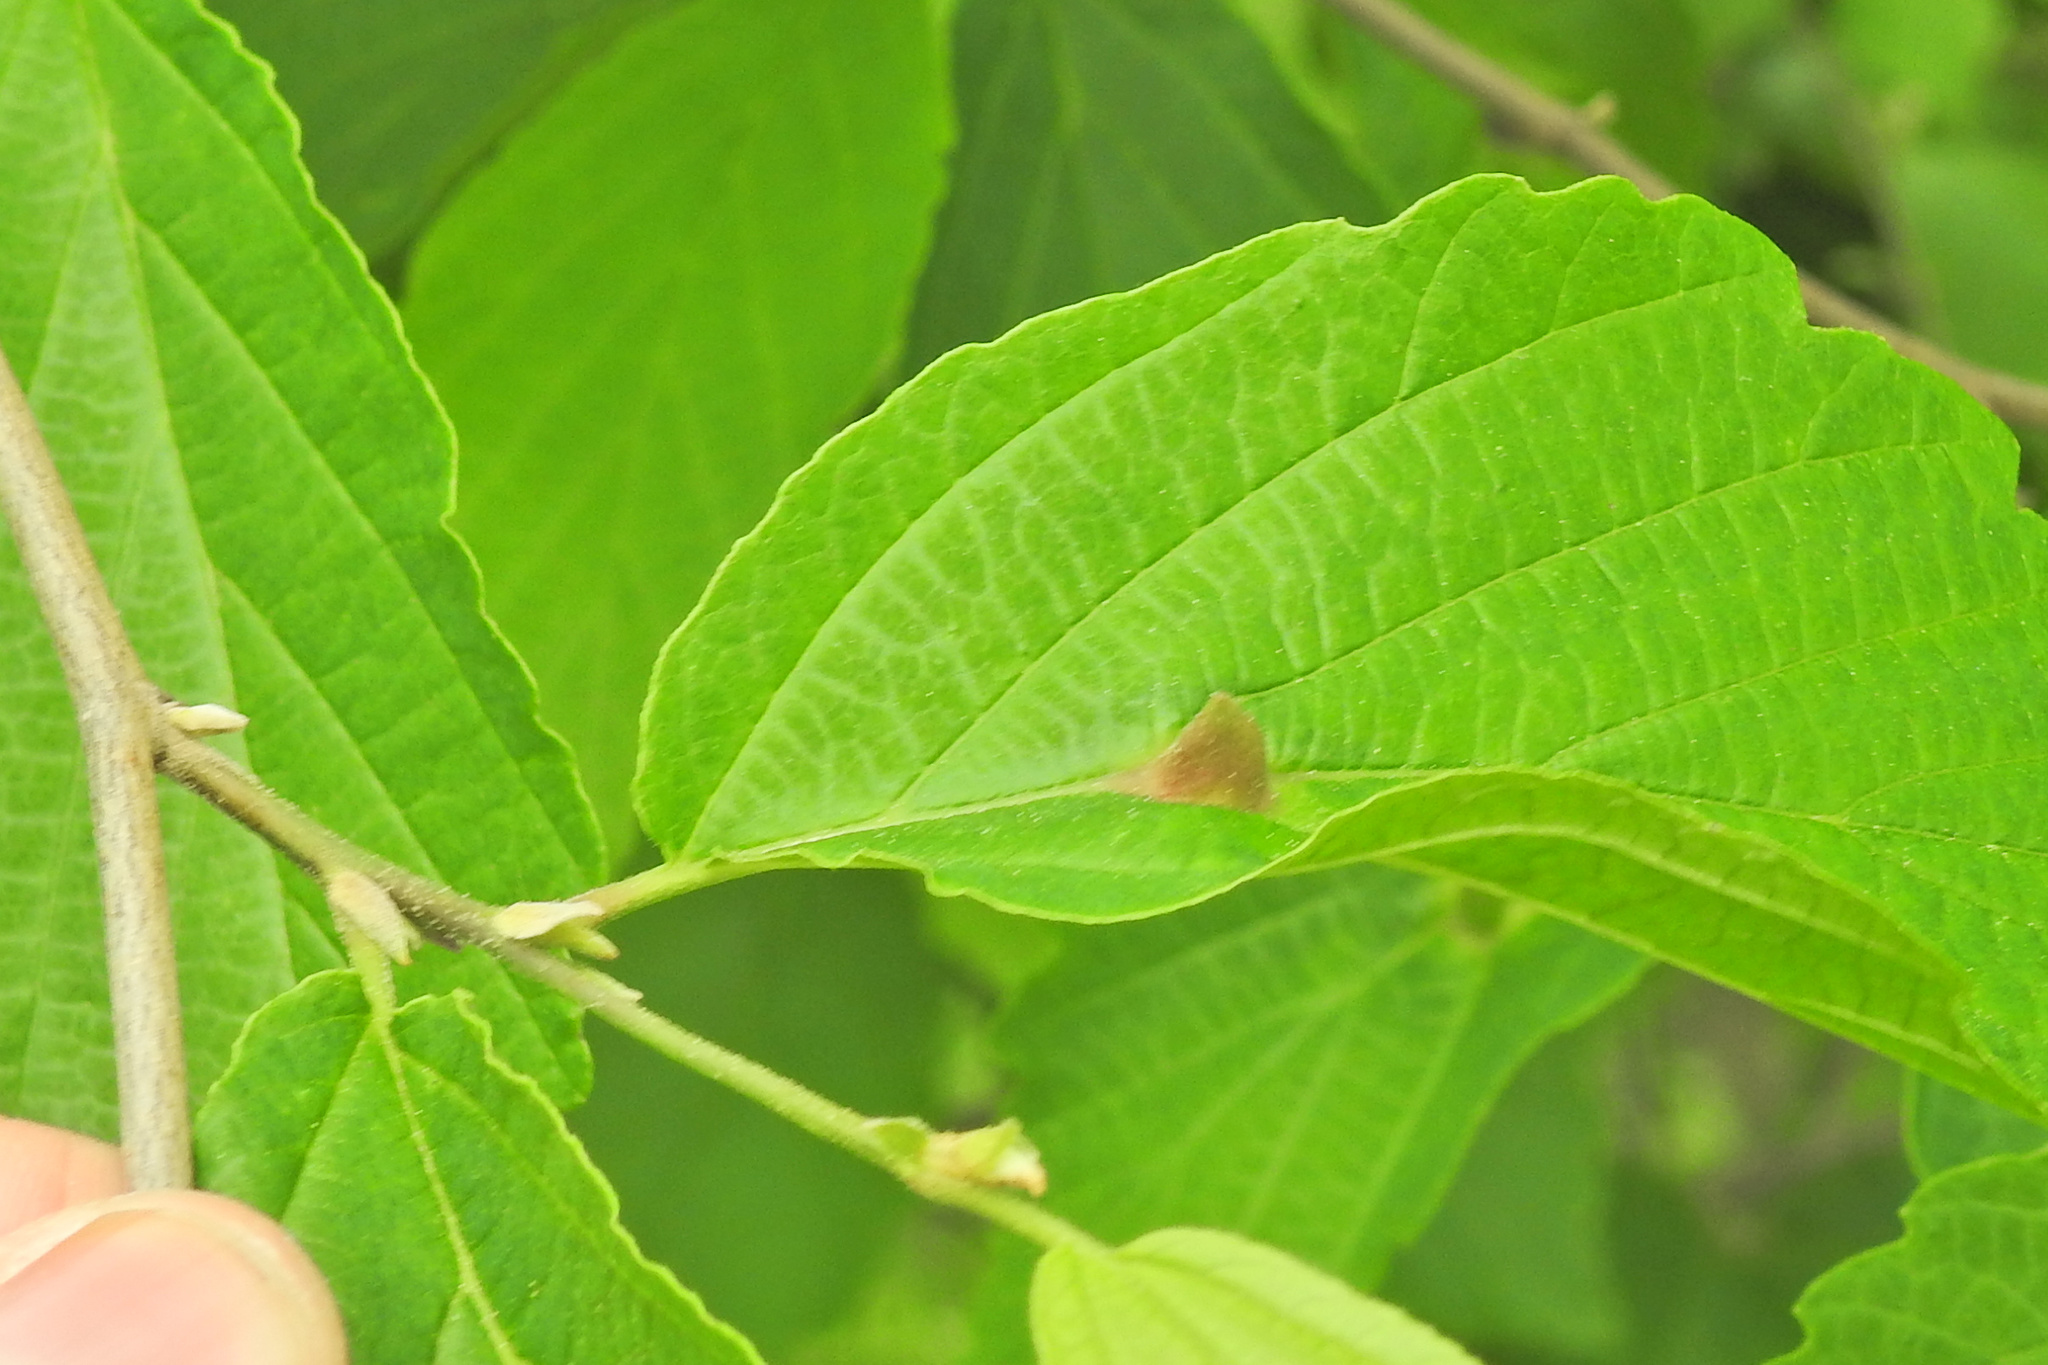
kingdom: Animalia
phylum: Arthropoda
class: Insecta
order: Hemiptera
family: Aphididae
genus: Hormaphis
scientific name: Hormaphis hamamelidis
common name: Witch-hazel cone gall aphid
